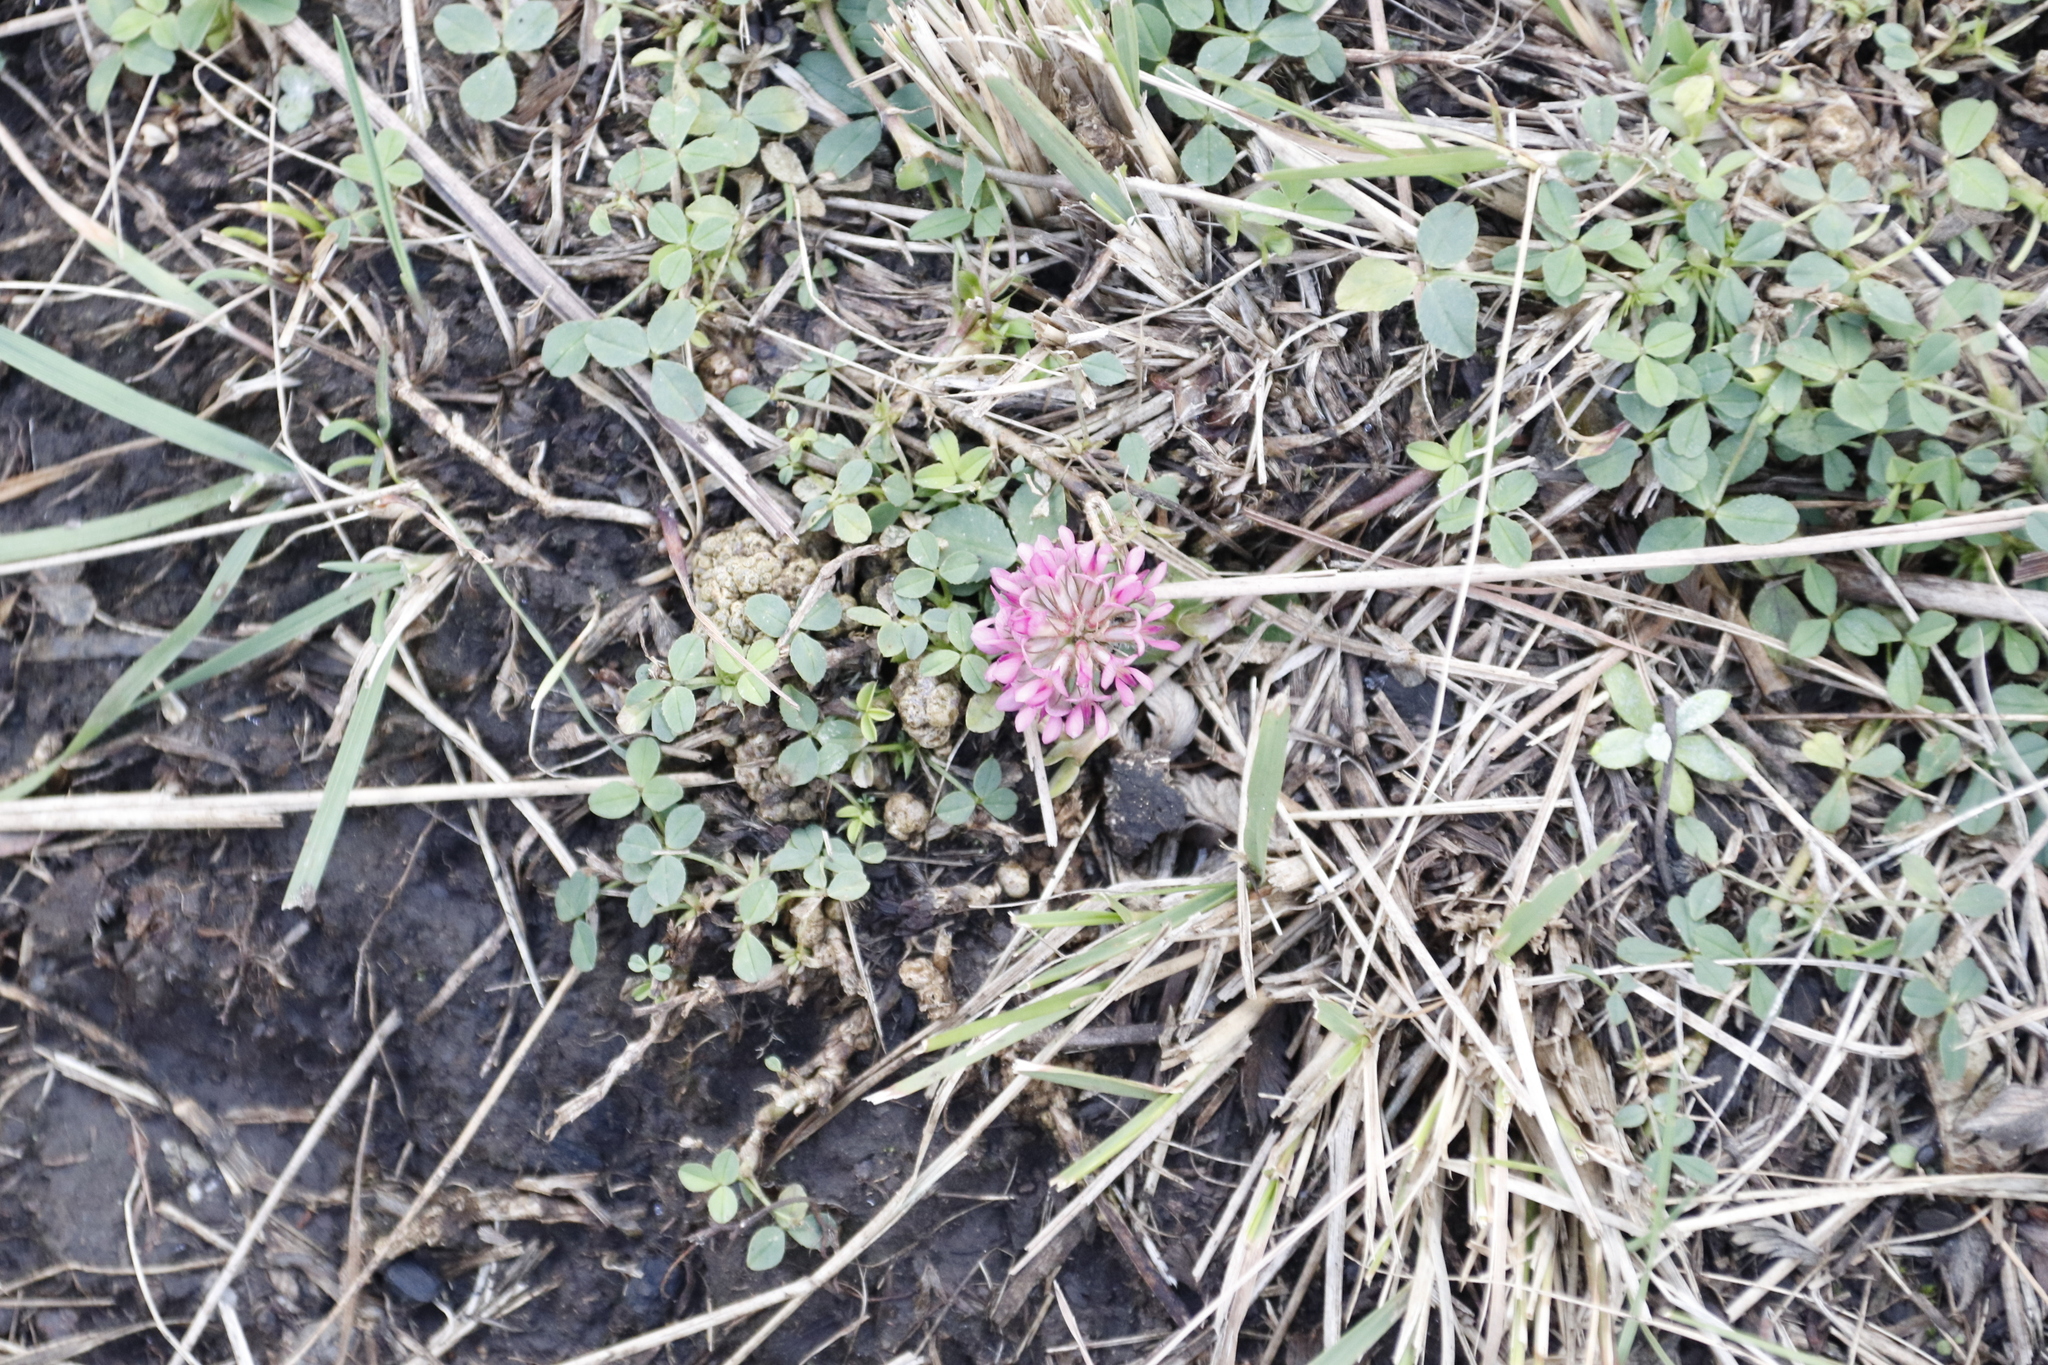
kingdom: Plantae
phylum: Tracheophyta
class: Magnoliopsida
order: Fabales
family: Fabaceae
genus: Trifolium
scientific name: Trifolium burchellianum
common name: Burchell's clover
